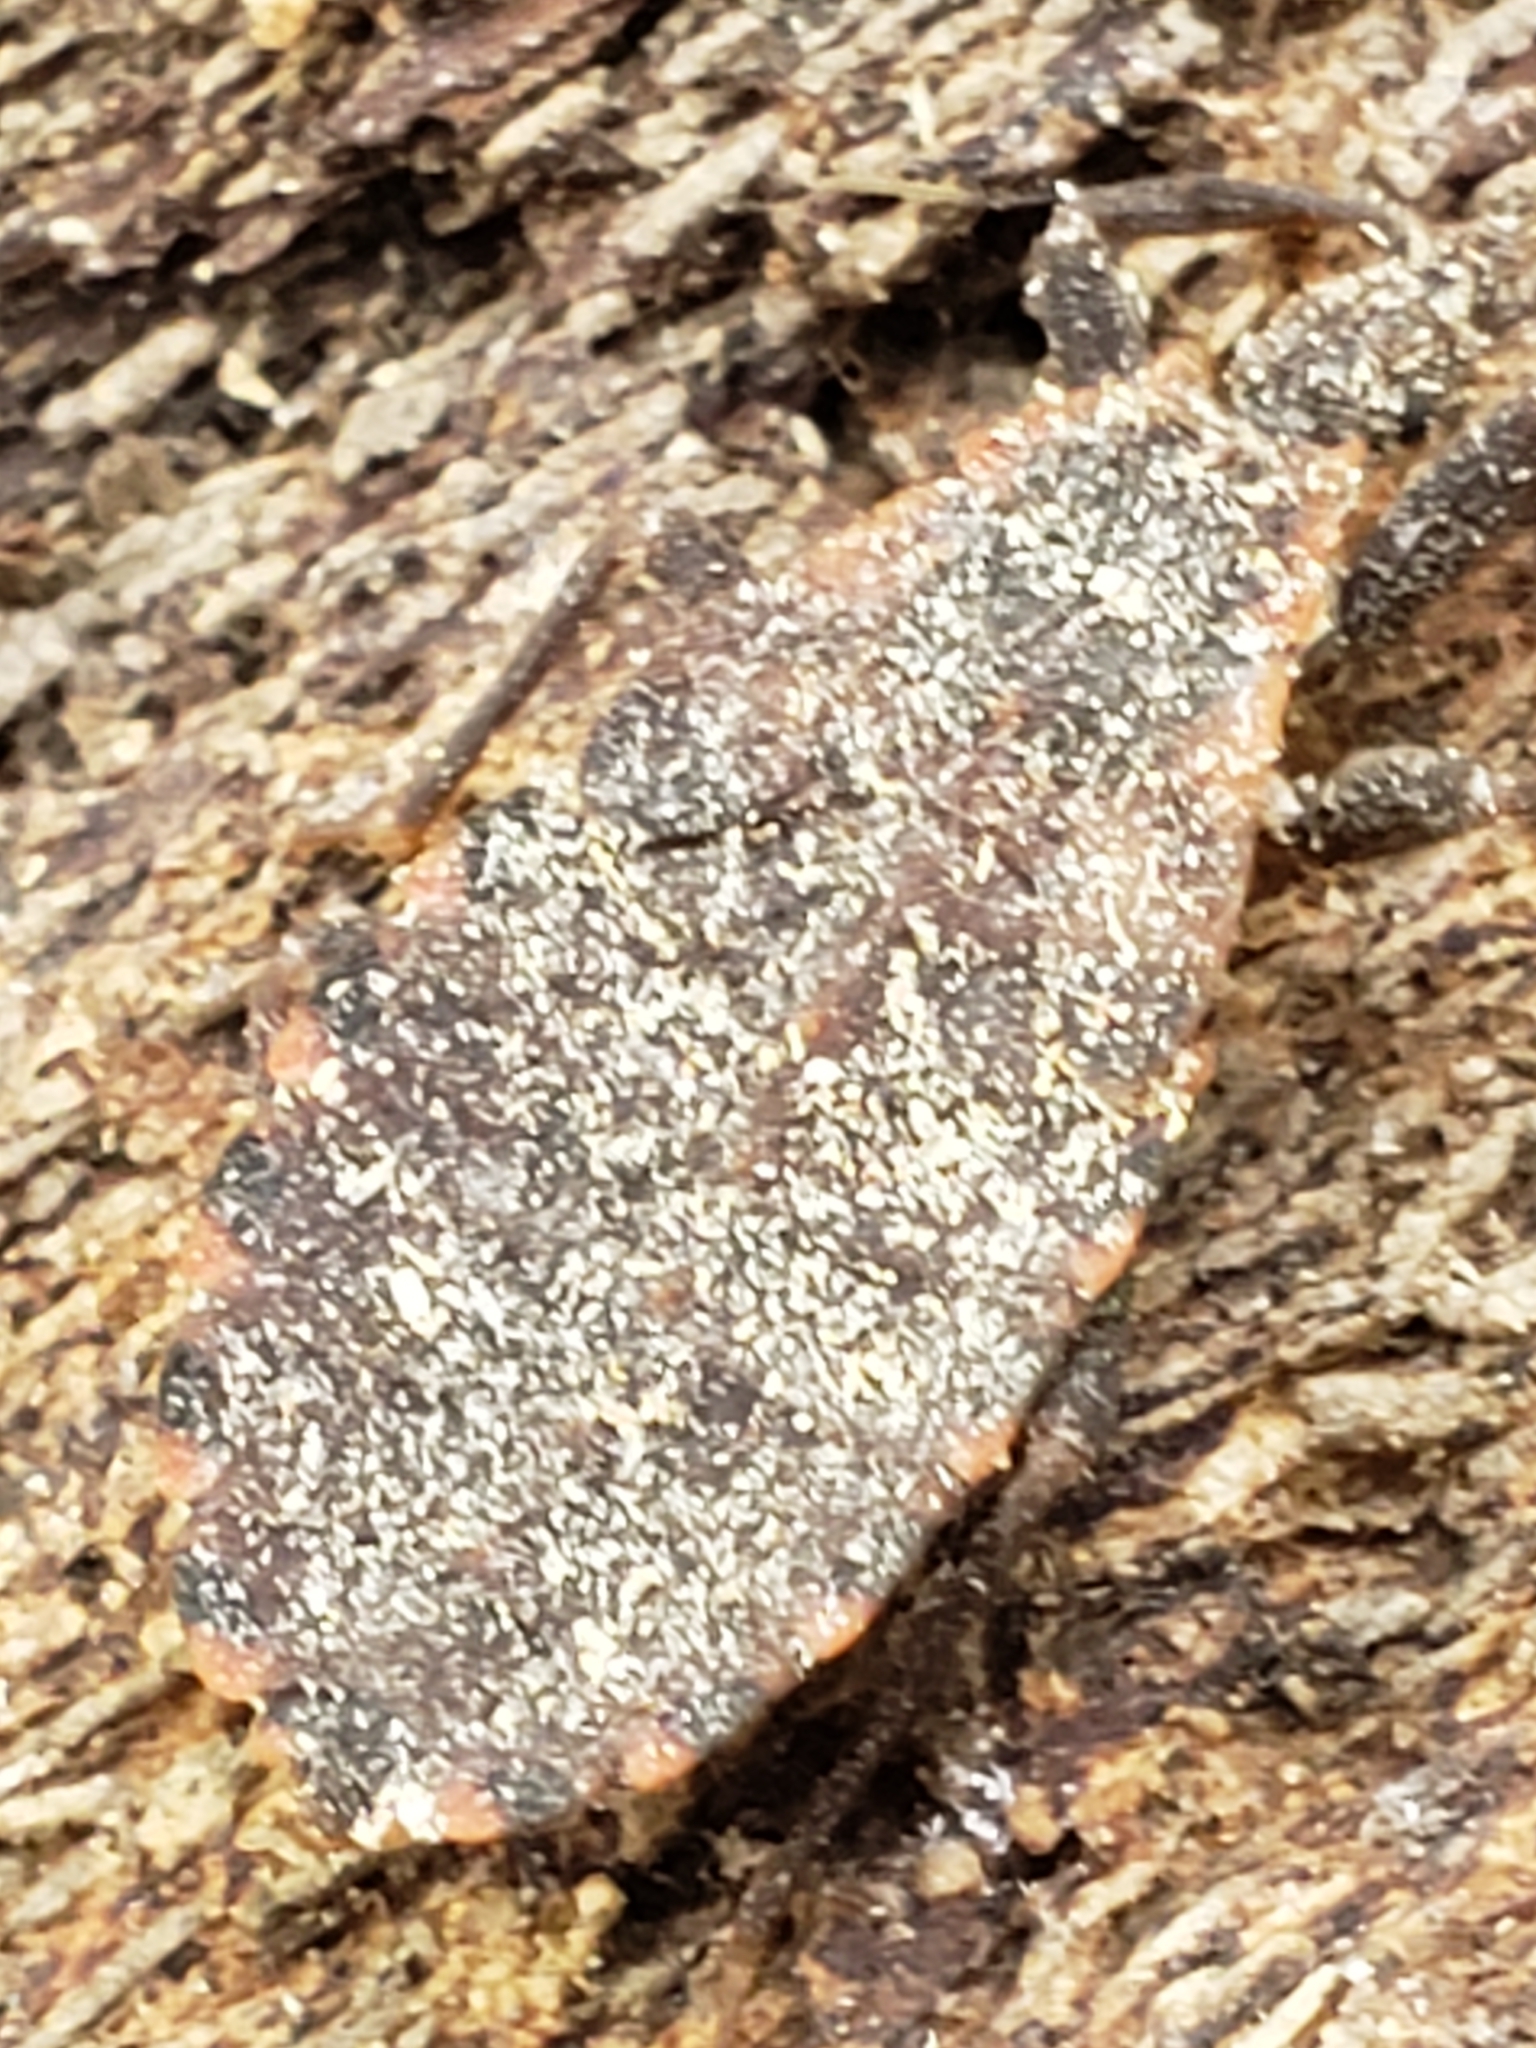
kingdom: Animalia
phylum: Arthropoda
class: Insecta
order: Hemiptera
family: Reduviidae
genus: Triatoma
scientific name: Triatoma sanguisuga
